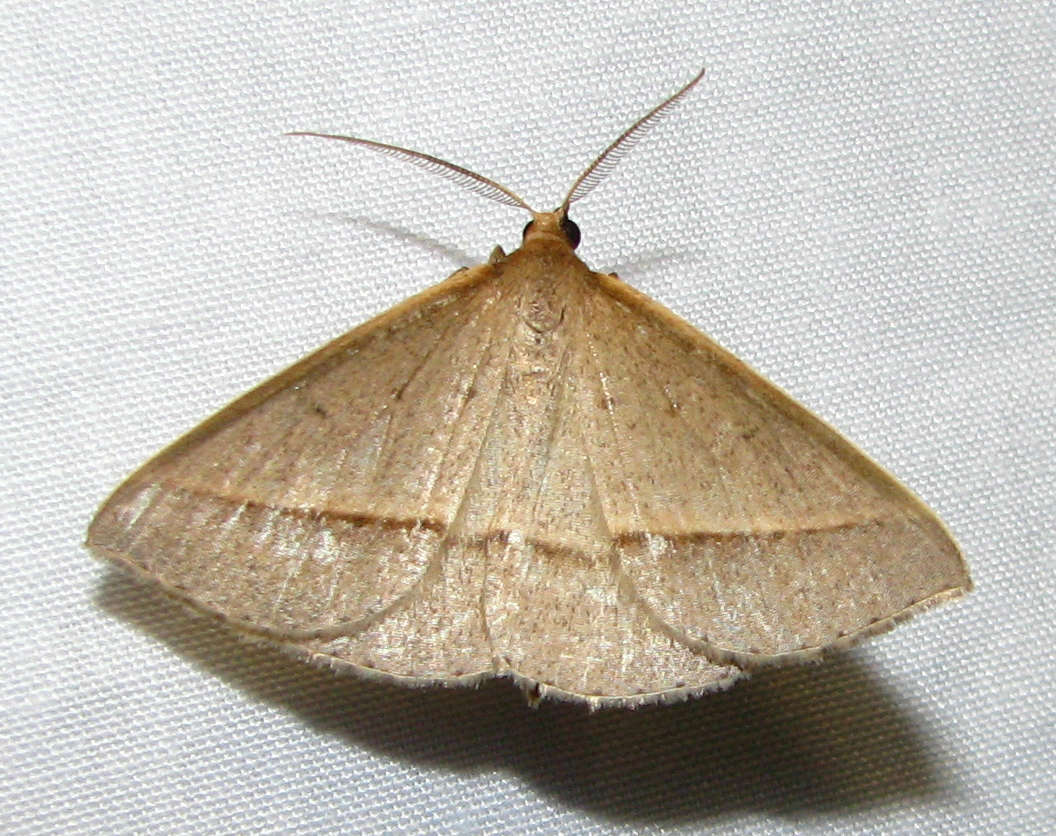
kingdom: Animalia
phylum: Arthropoda
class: Insecta
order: Lepidoptera
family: Geometridae
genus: Epidesmia
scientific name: Epidesmia tryxaria
